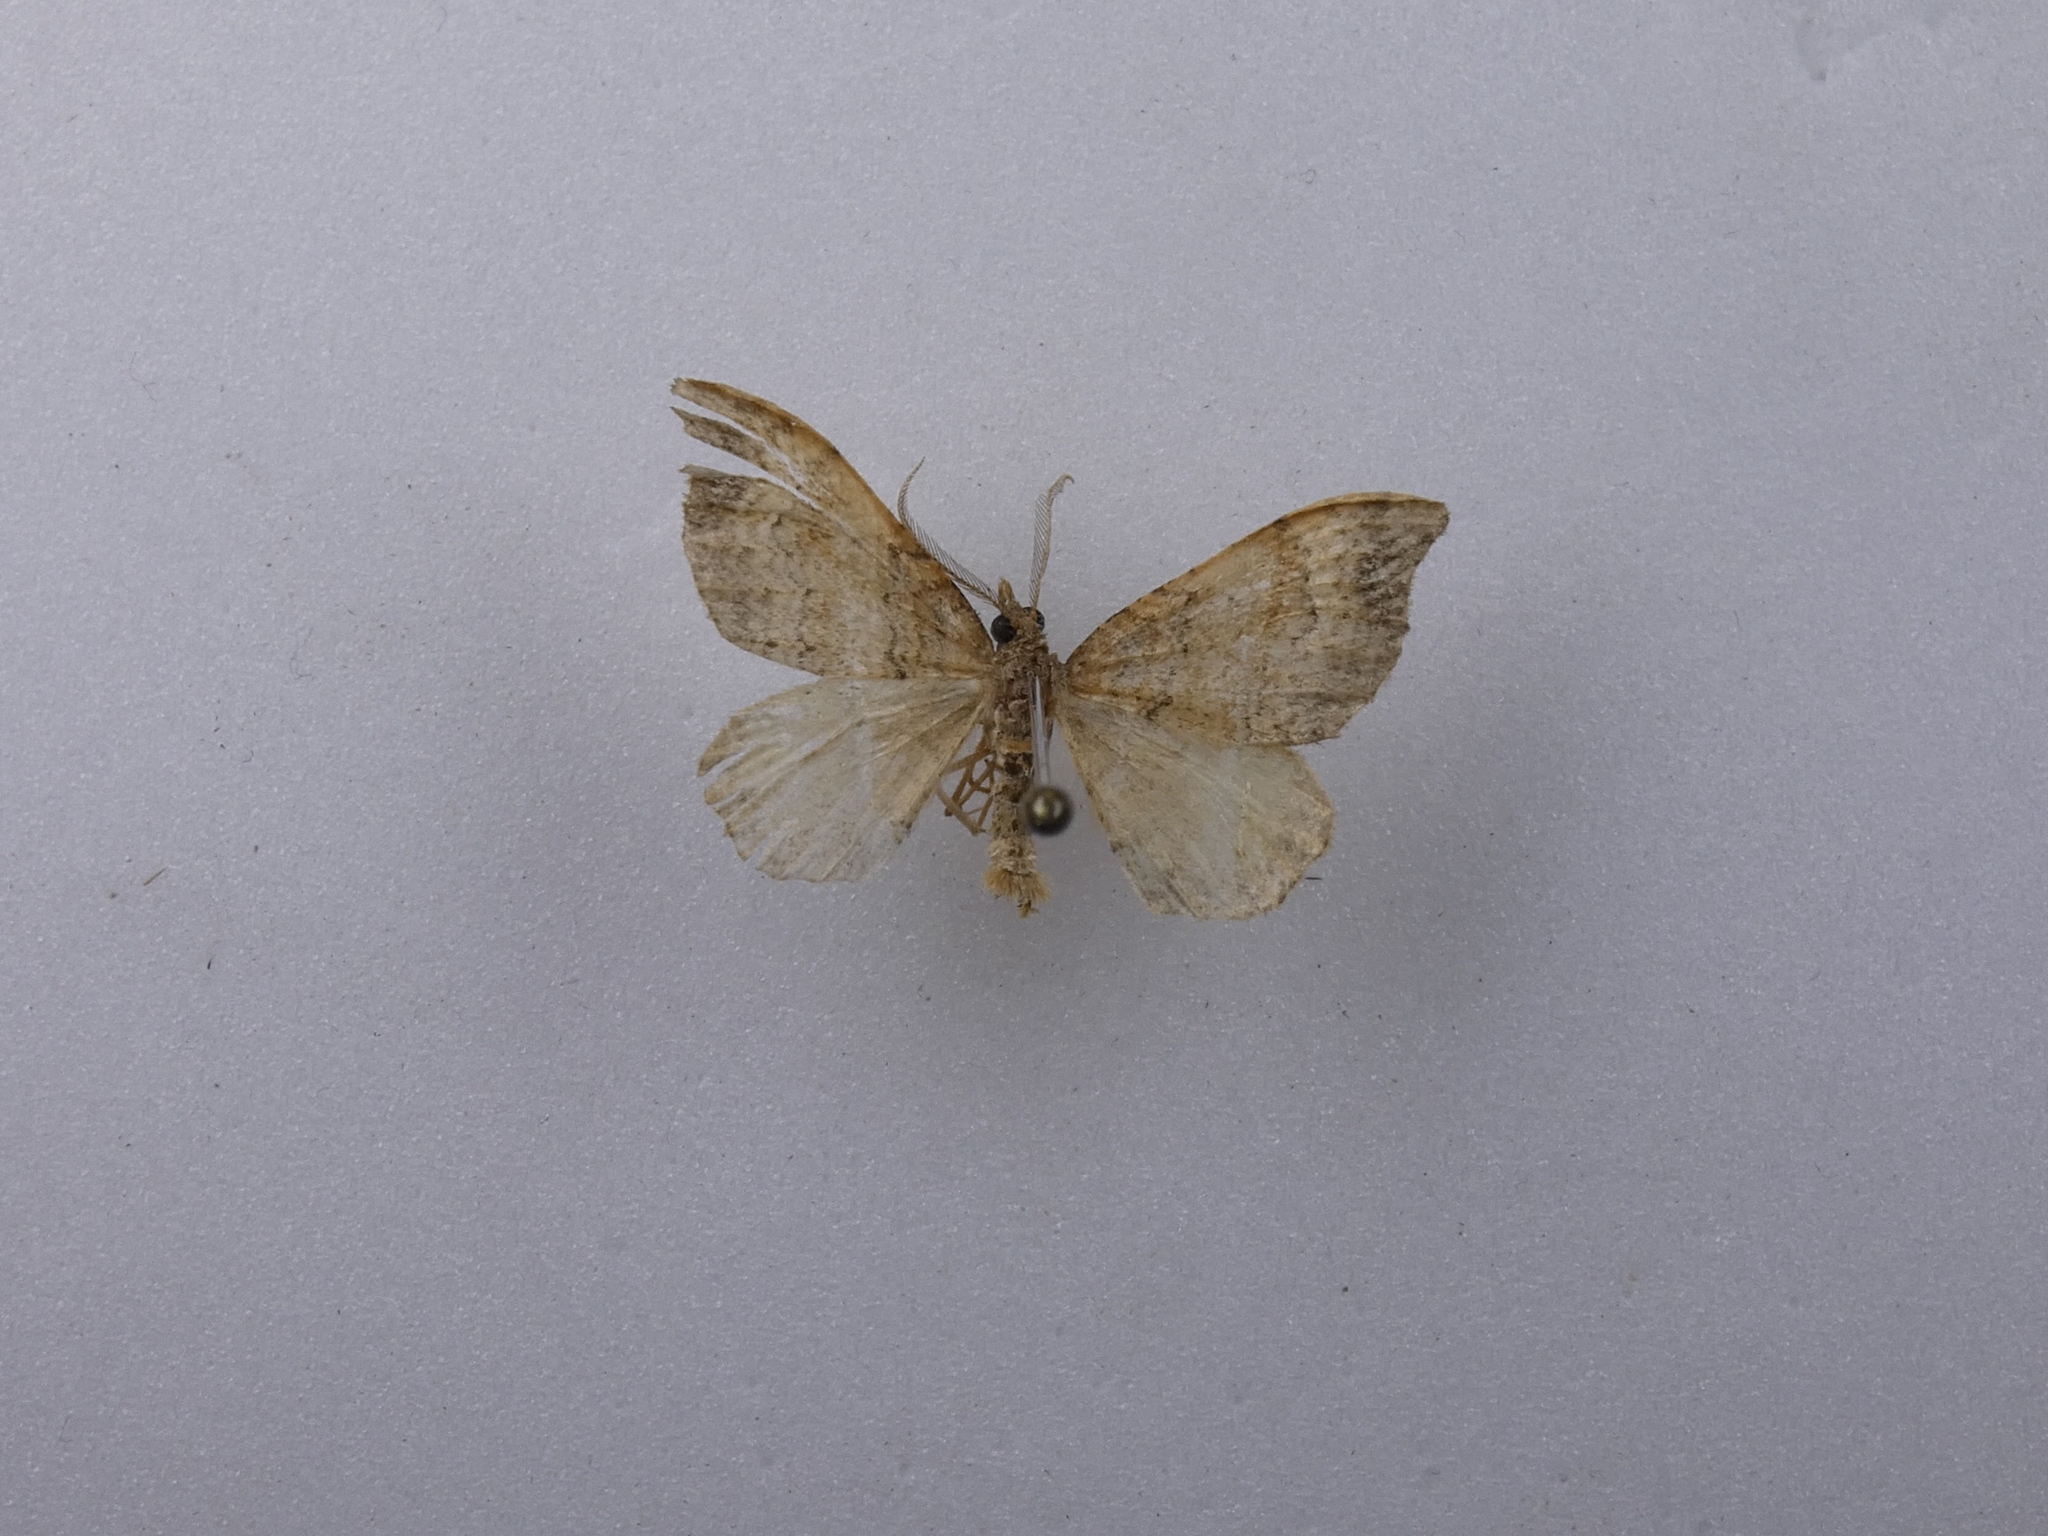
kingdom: Animalia
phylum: Arthropoda
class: Insecta
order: Lepidoptera
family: Geometridae
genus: Homodotis
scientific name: Homodotis megaspilata
